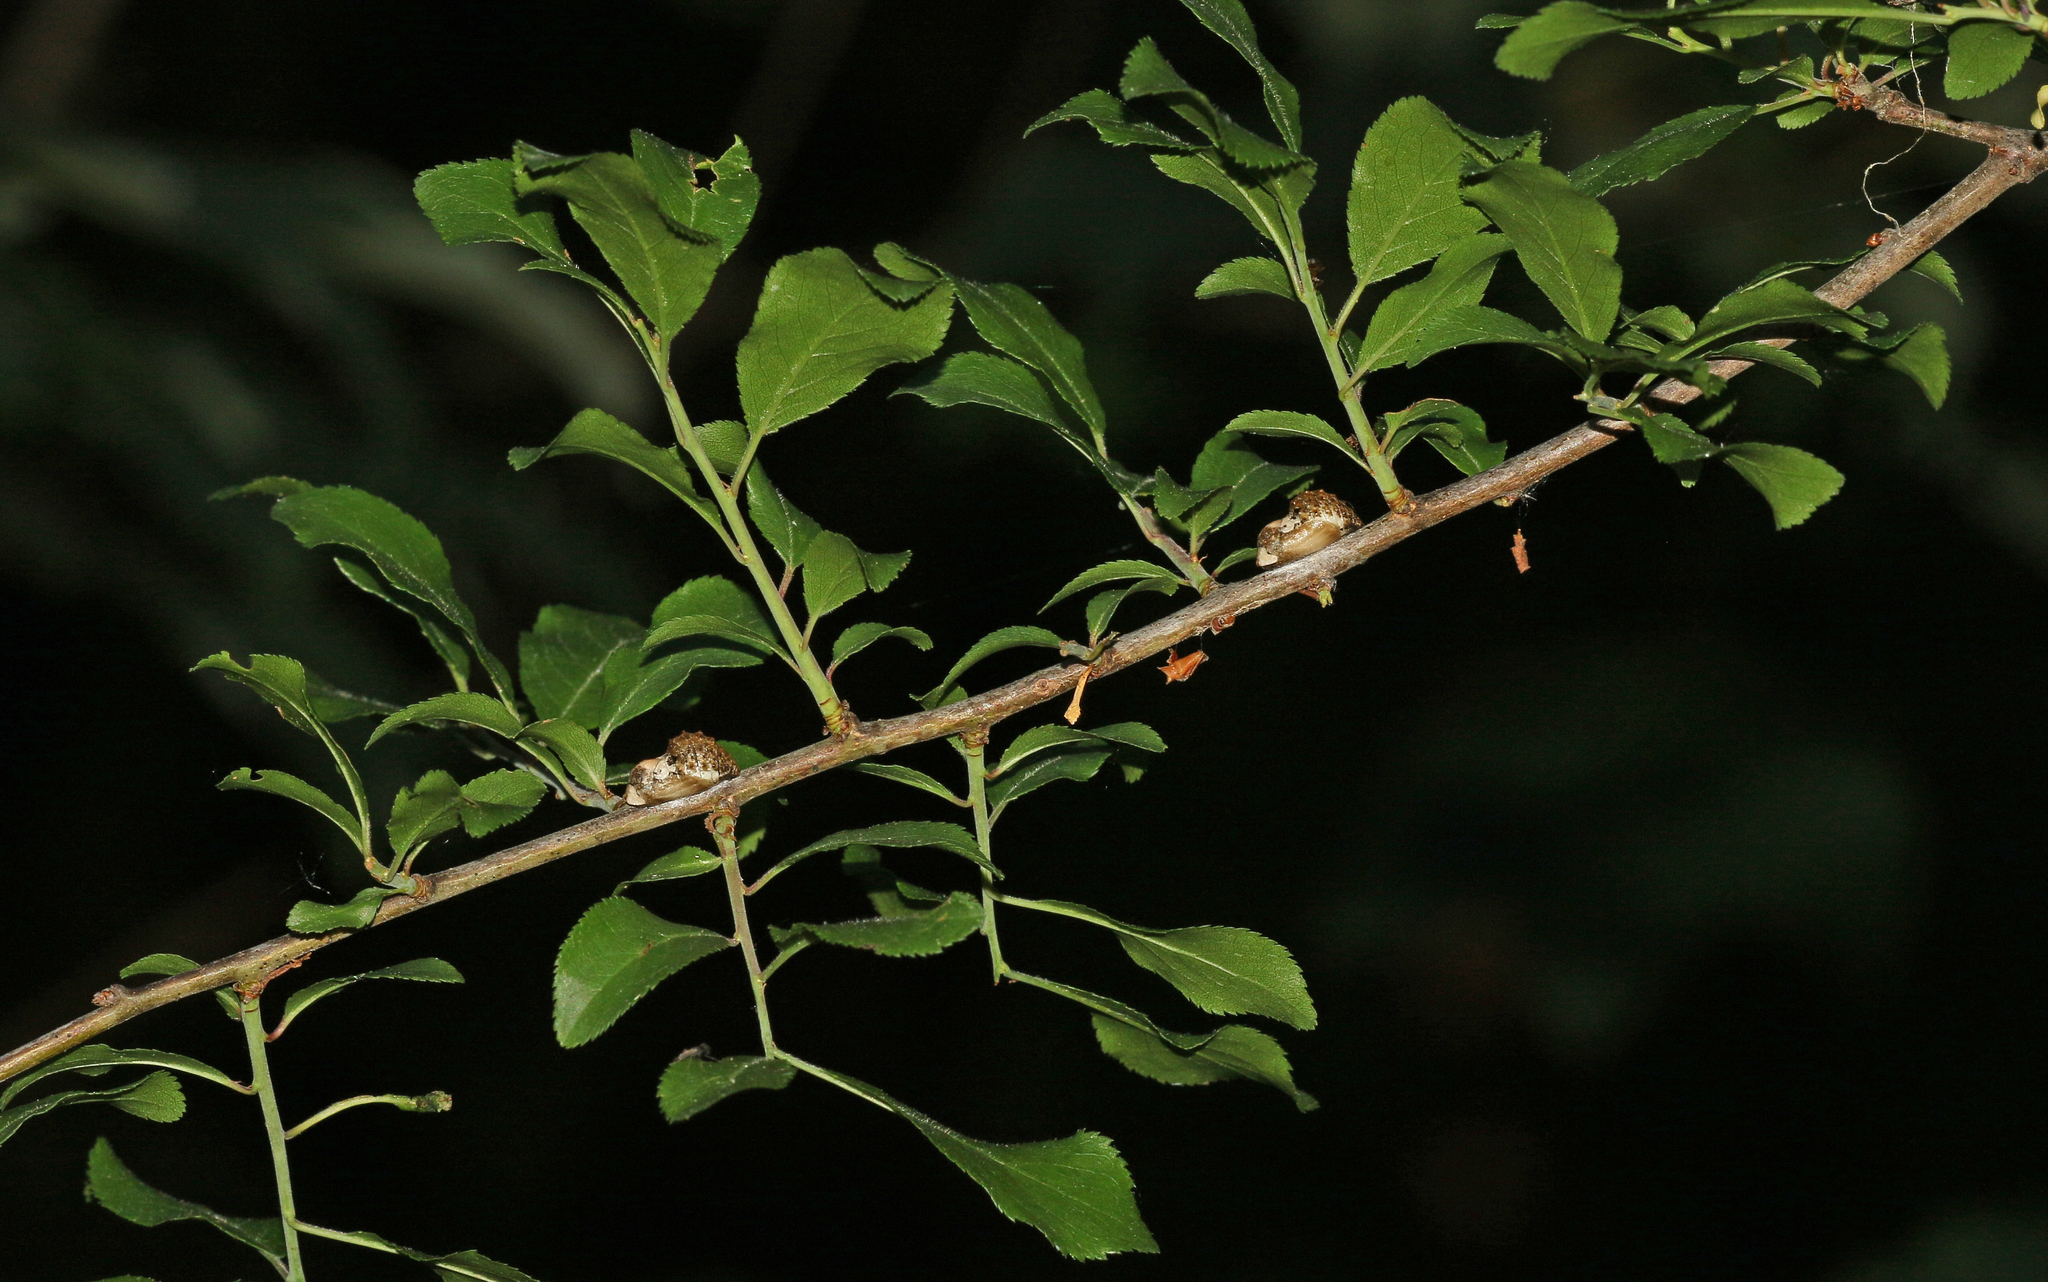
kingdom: Animalia
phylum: Arthropoda
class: Insecta
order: Lepidoptera
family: Lycaenidae
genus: Fixsenia
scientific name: Fixsenia pruni
